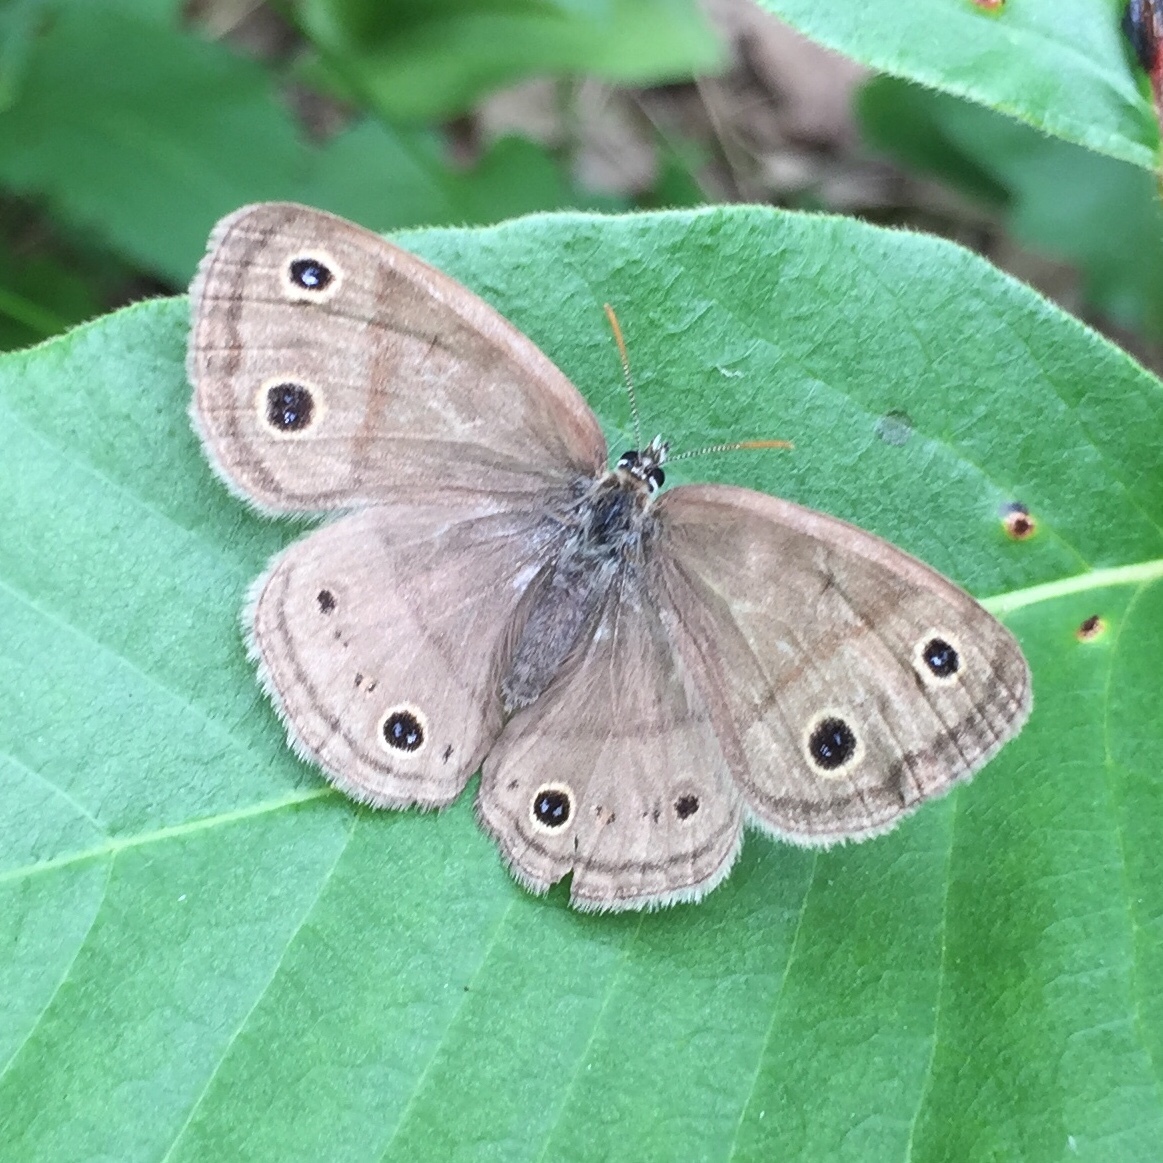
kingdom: Animalia
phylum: Arthropoda
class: Insecta
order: Lepidoptera
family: Nymphalidae
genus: Euptychia
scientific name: Euptychia cymela
